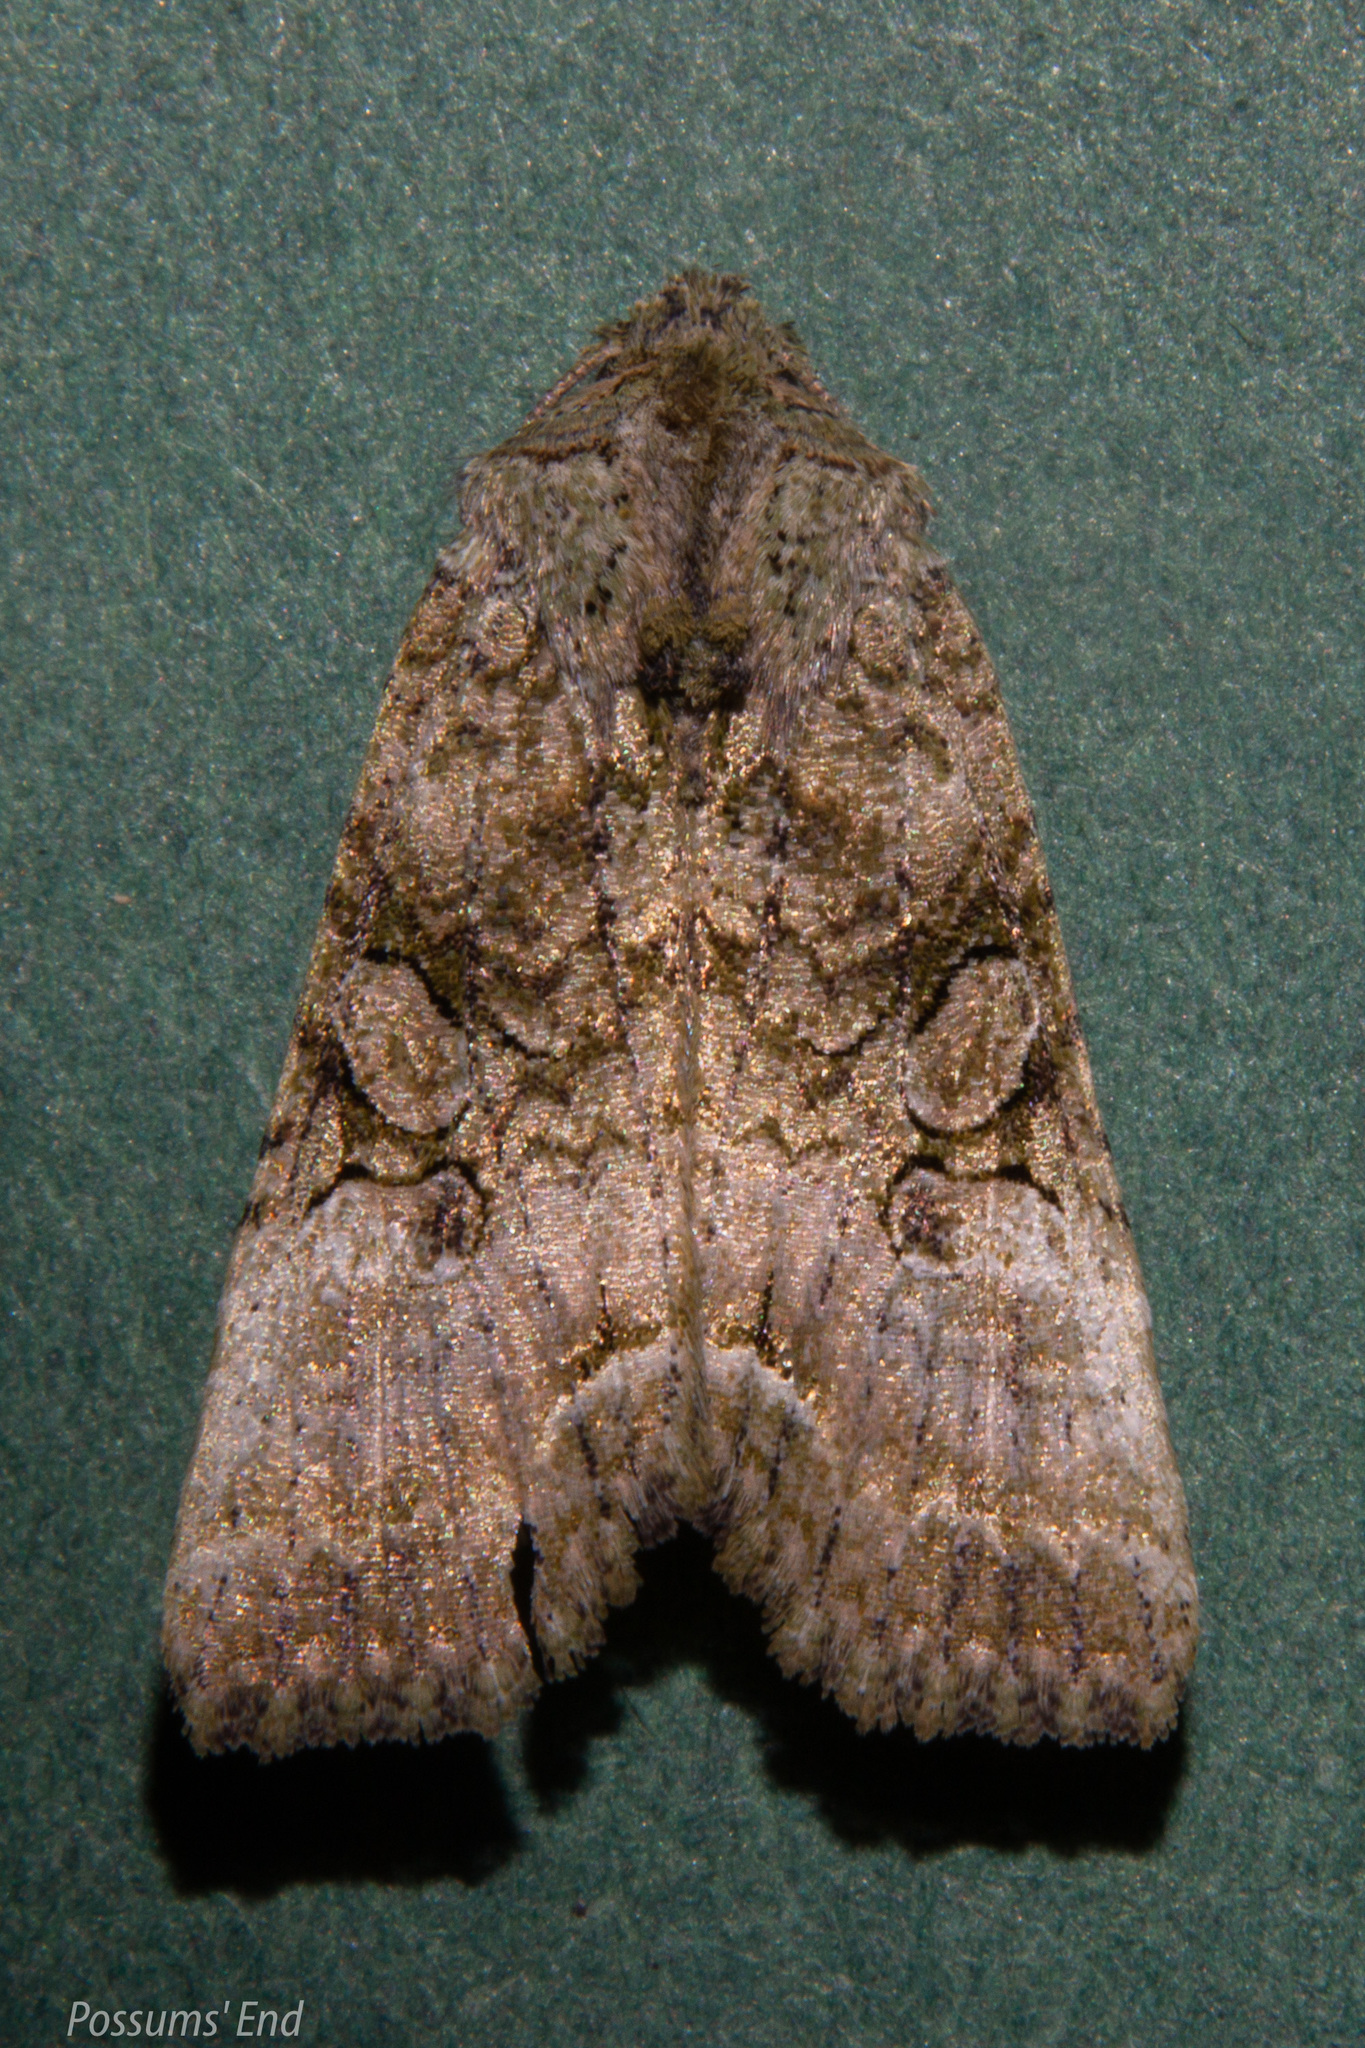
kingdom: Animalia
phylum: Arthropoda
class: Insecta
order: Lepidoptera
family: Noctuidae
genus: Meterana
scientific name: Meterana levis
